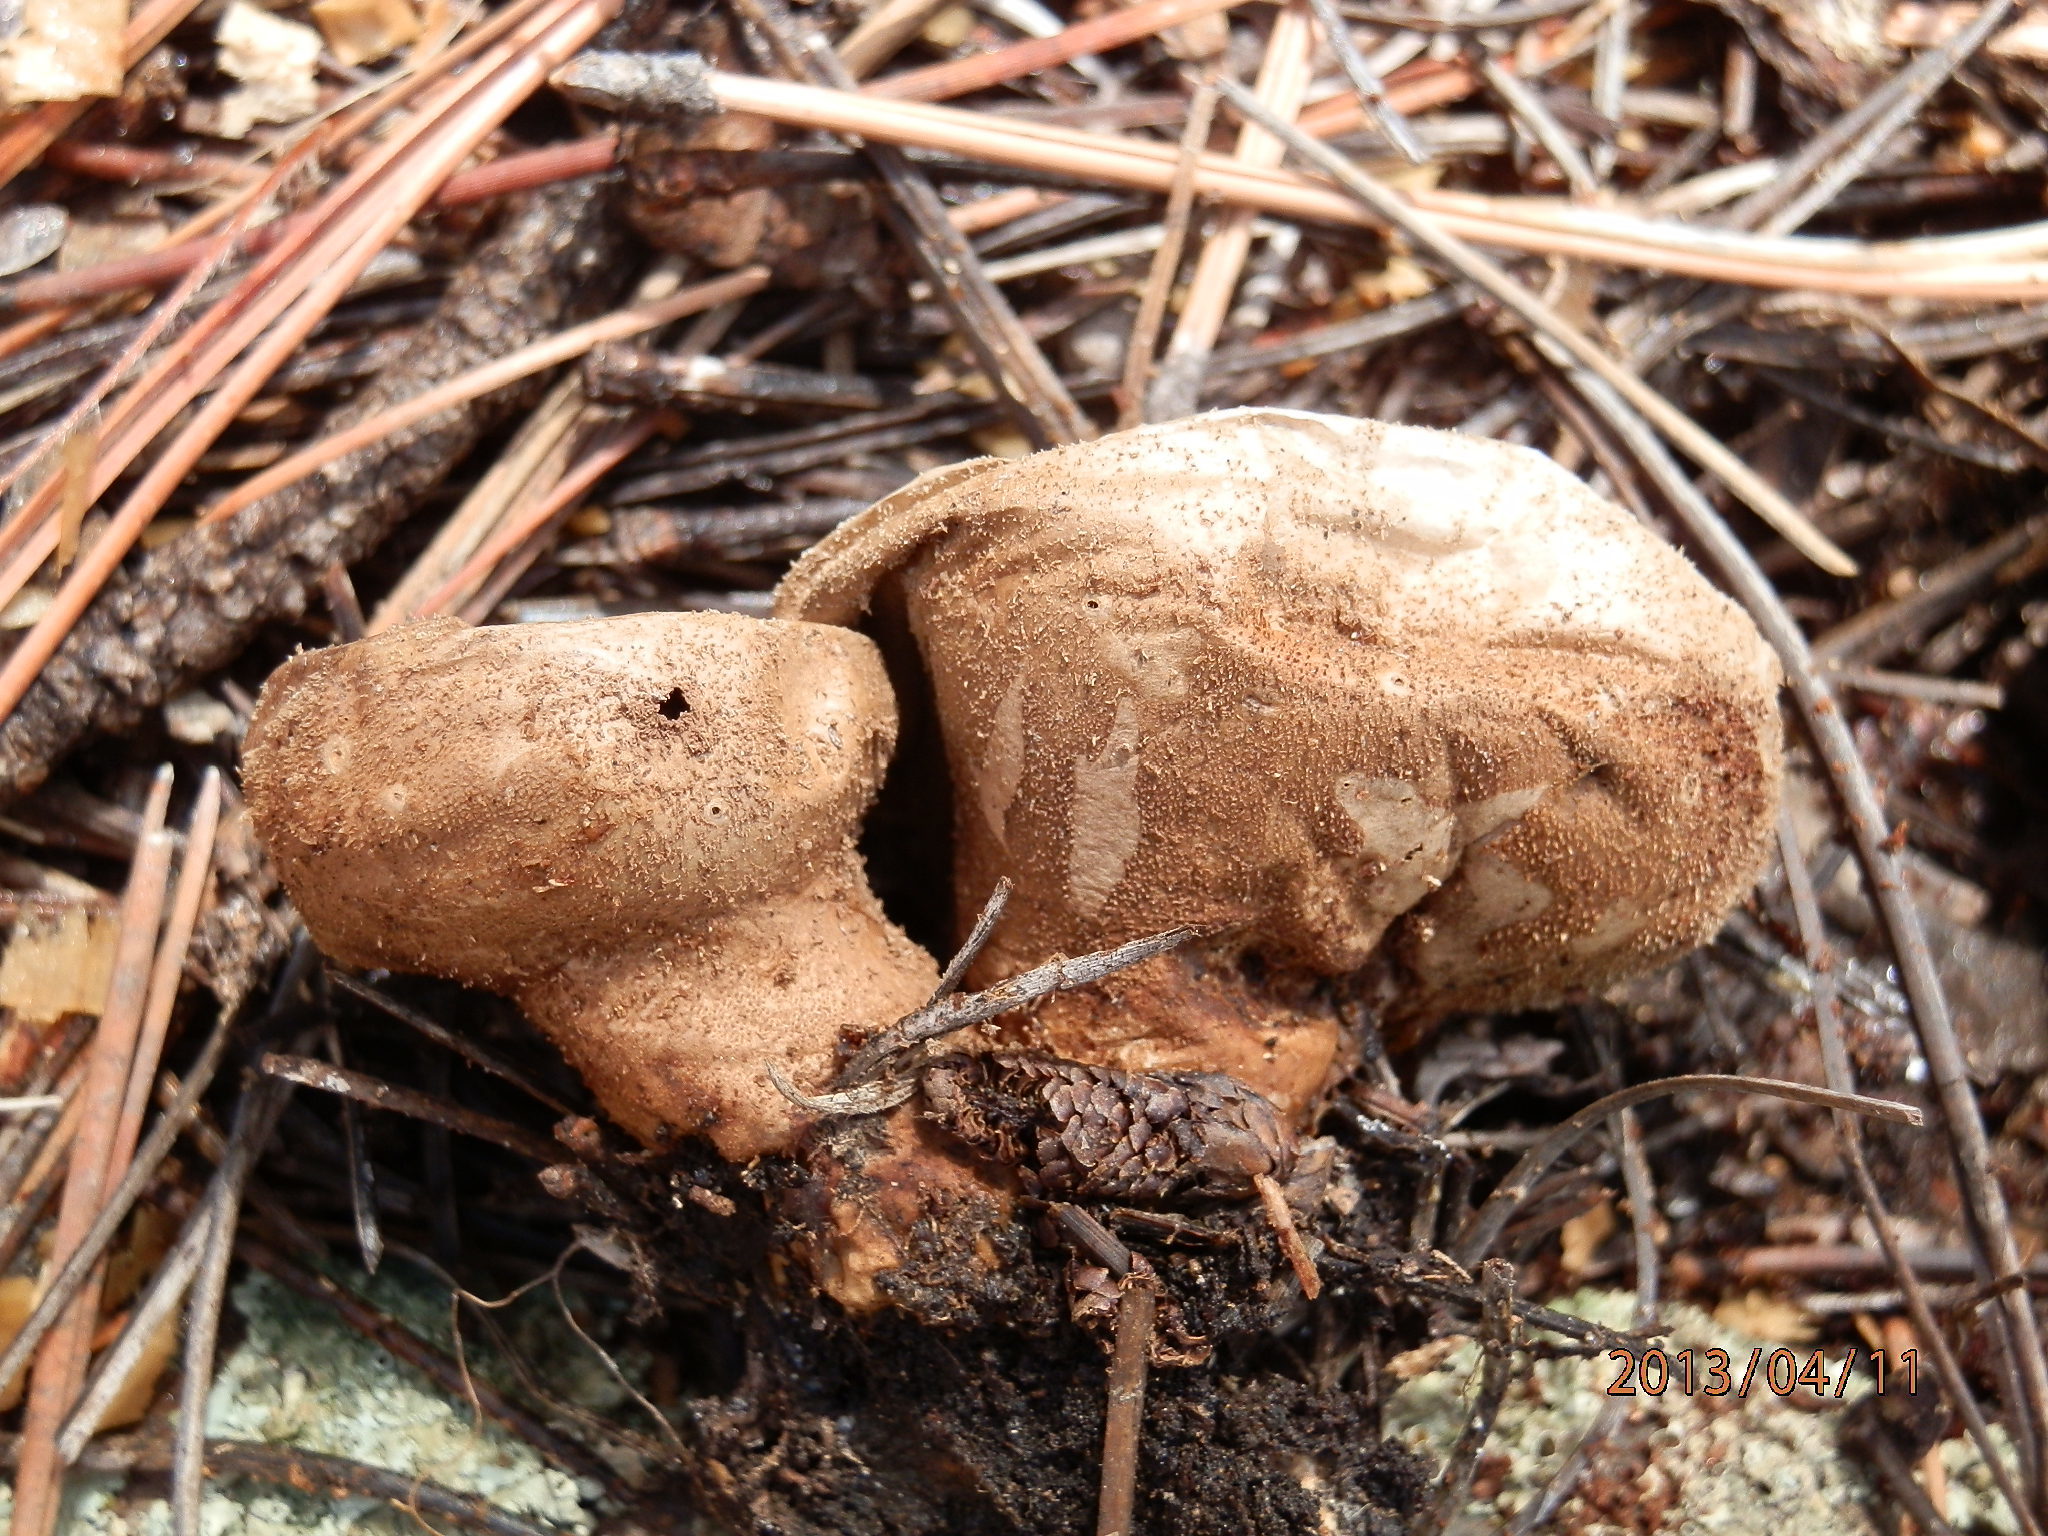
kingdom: Fungi
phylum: Basidiomycota
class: Agaricomycetes
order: Agaricales
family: Agaricaceae
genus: Lycoperdon
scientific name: Lycoperdon marginatum
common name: Peeling puffball
